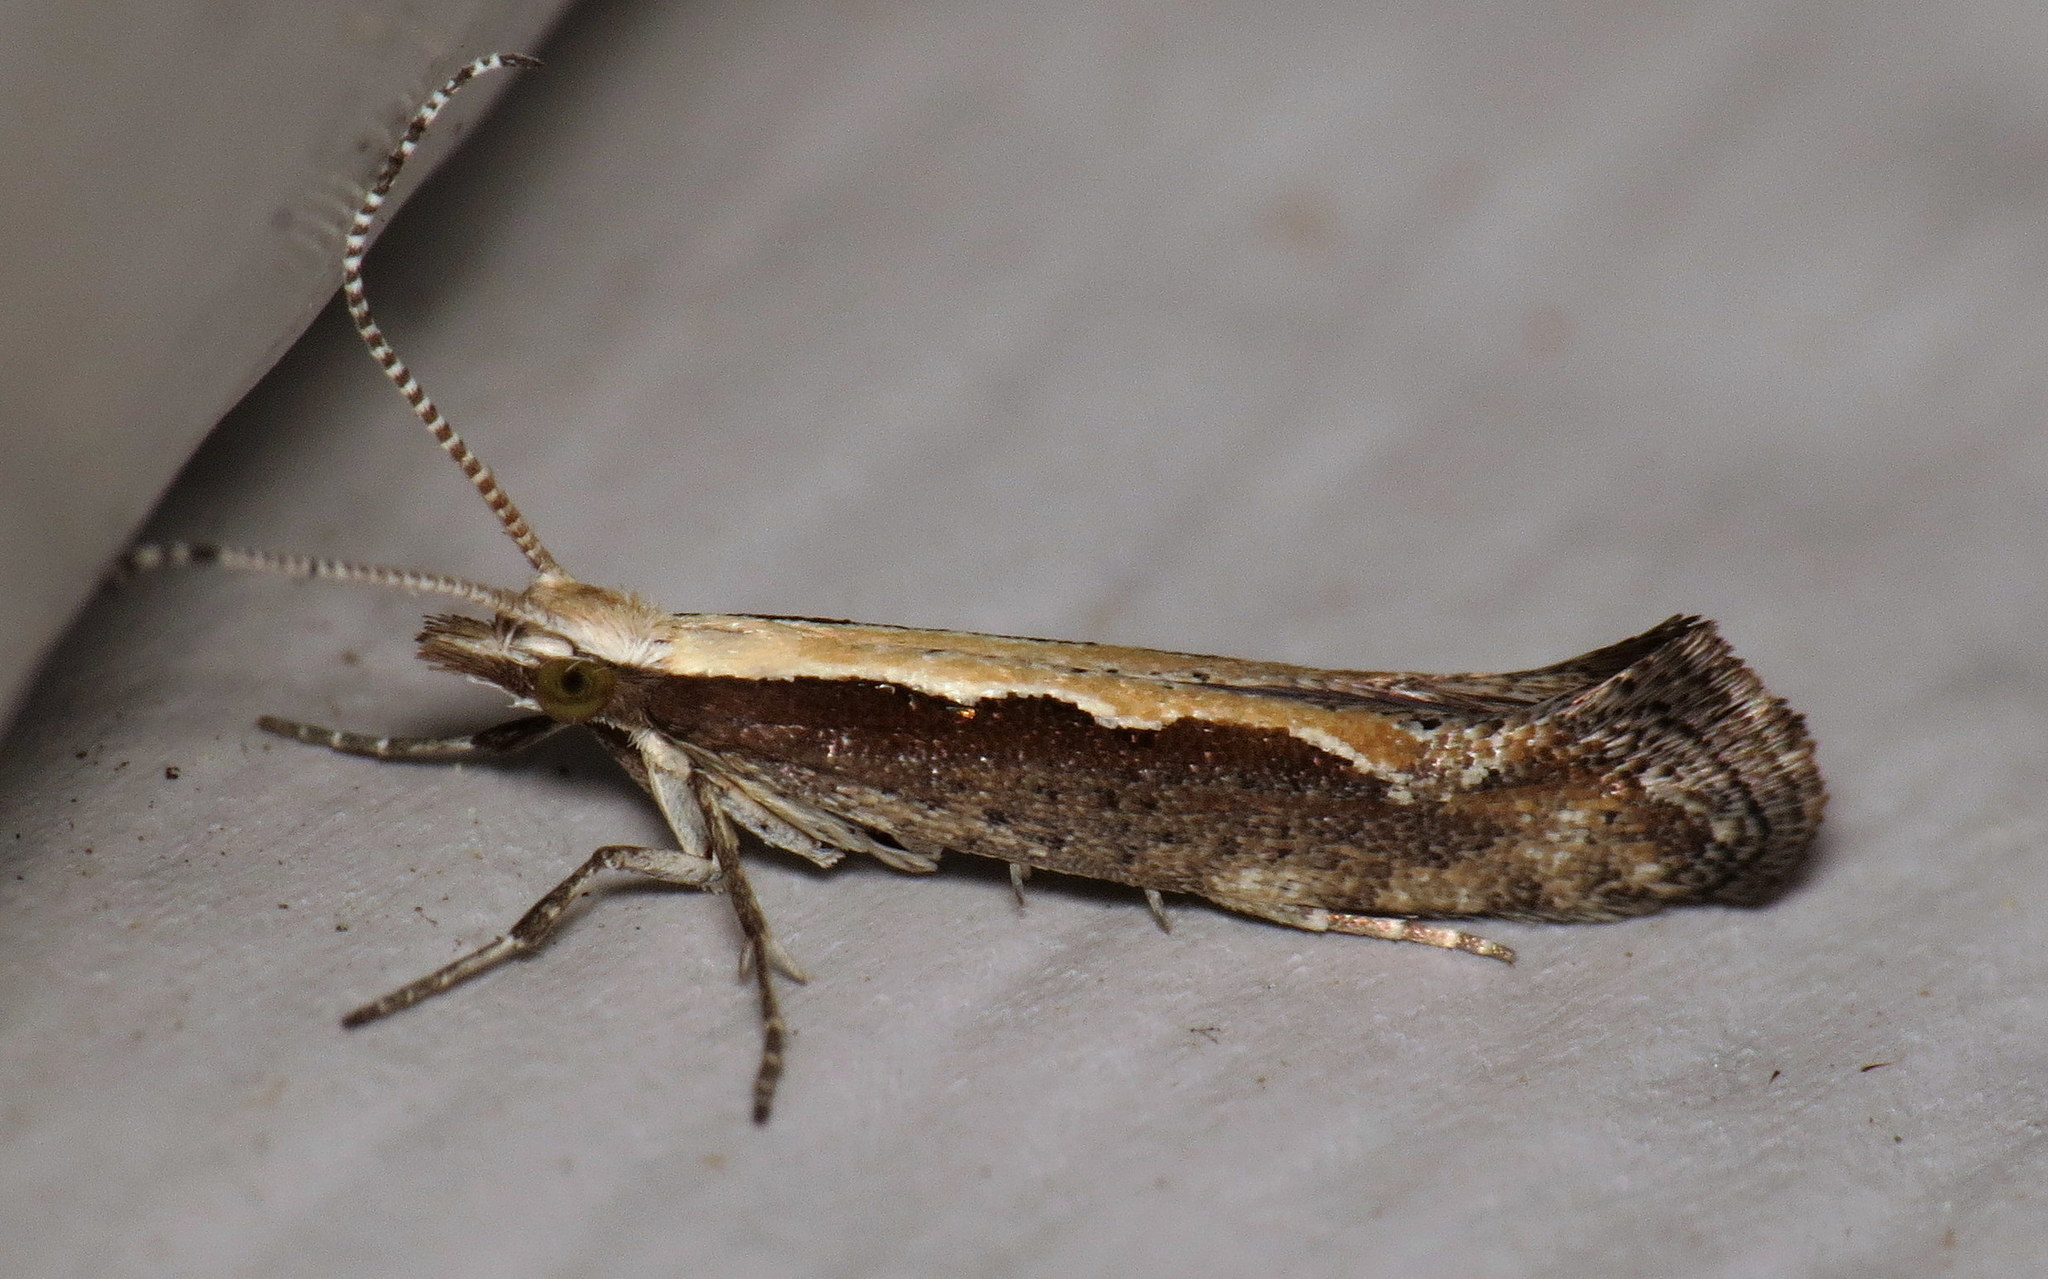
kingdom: Animalia
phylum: Arthropoda
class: Insecta
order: Lepidoptera
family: Plutellidae
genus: Plutella
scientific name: Plutella xylostella
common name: Diamond-back moth
